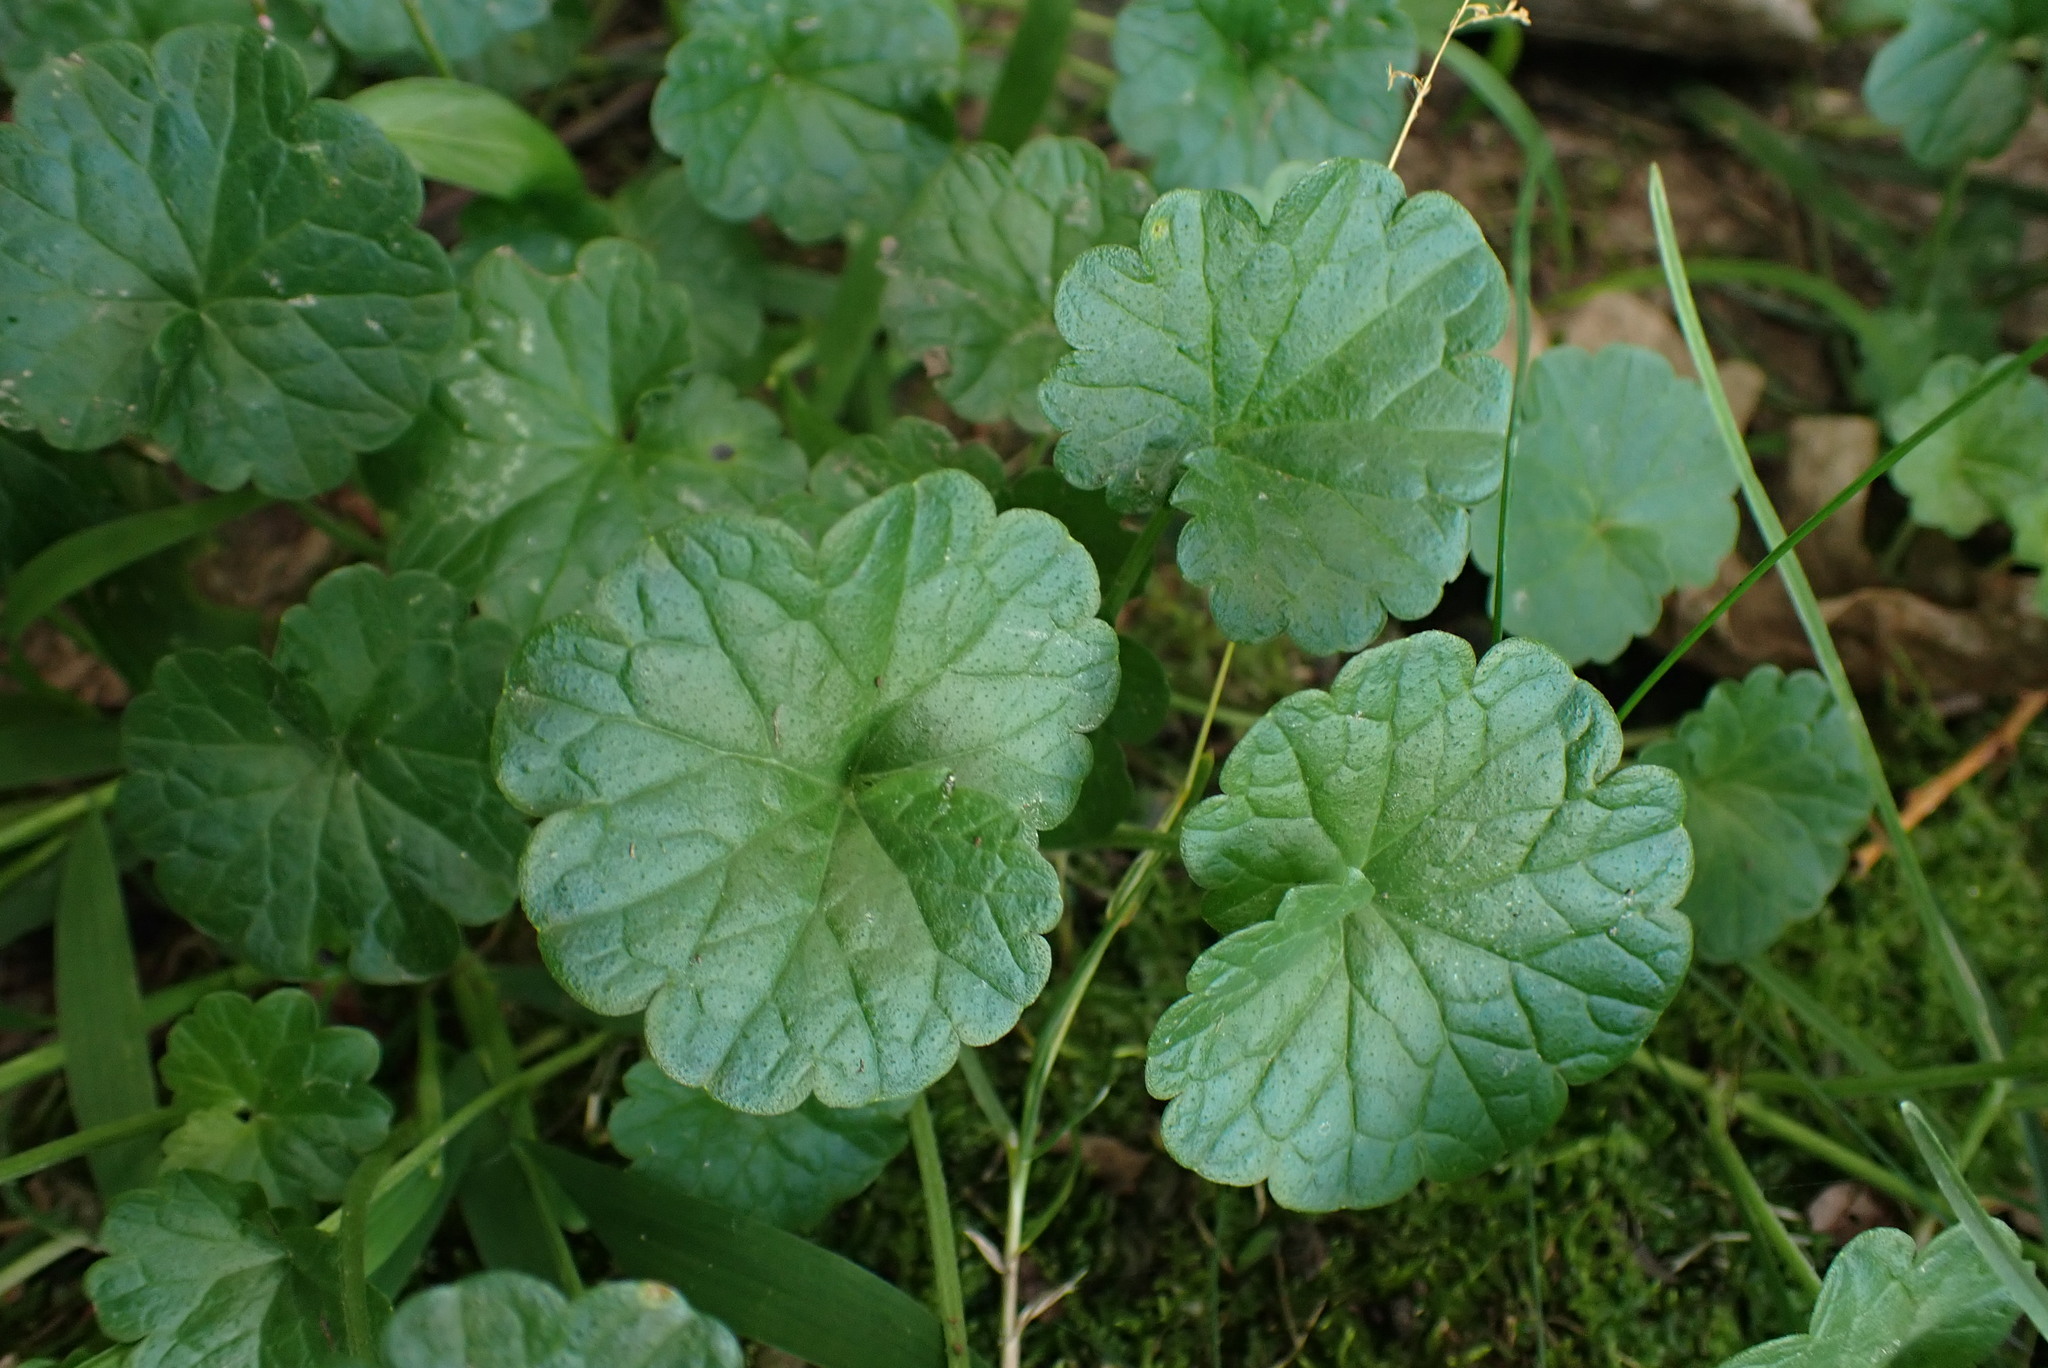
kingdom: Plantae
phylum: Tracheophyta
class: Magnoliopsida
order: Lamiales
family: Lamiaceae
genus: Glechoma
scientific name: Glechoma hederacea
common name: Ground ivy
